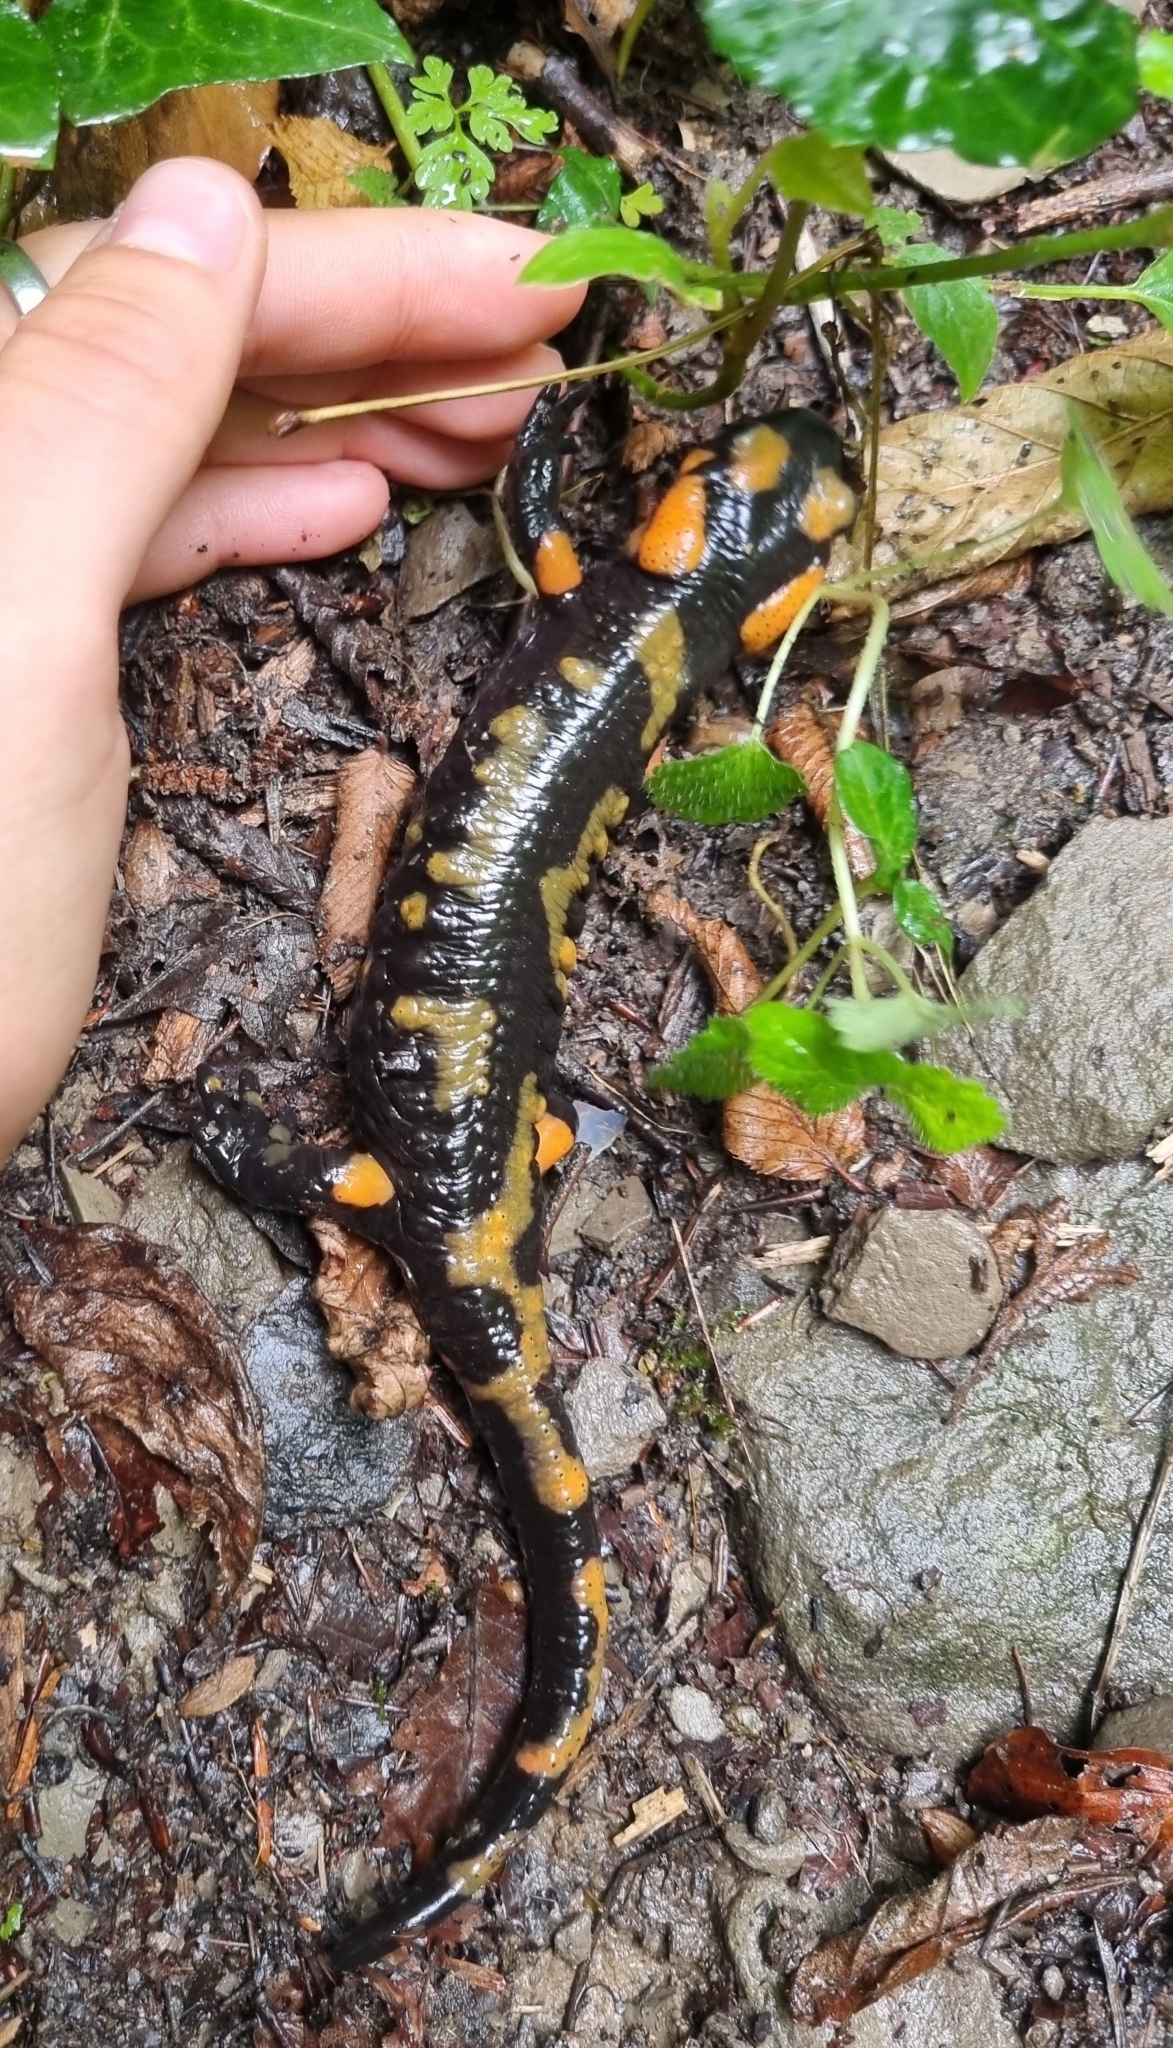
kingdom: Animalia
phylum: Chordata
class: Amphibia
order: Caudata
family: Salamandridae
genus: Salamandra
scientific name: Salamandra salamandra
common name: Fire salamander
